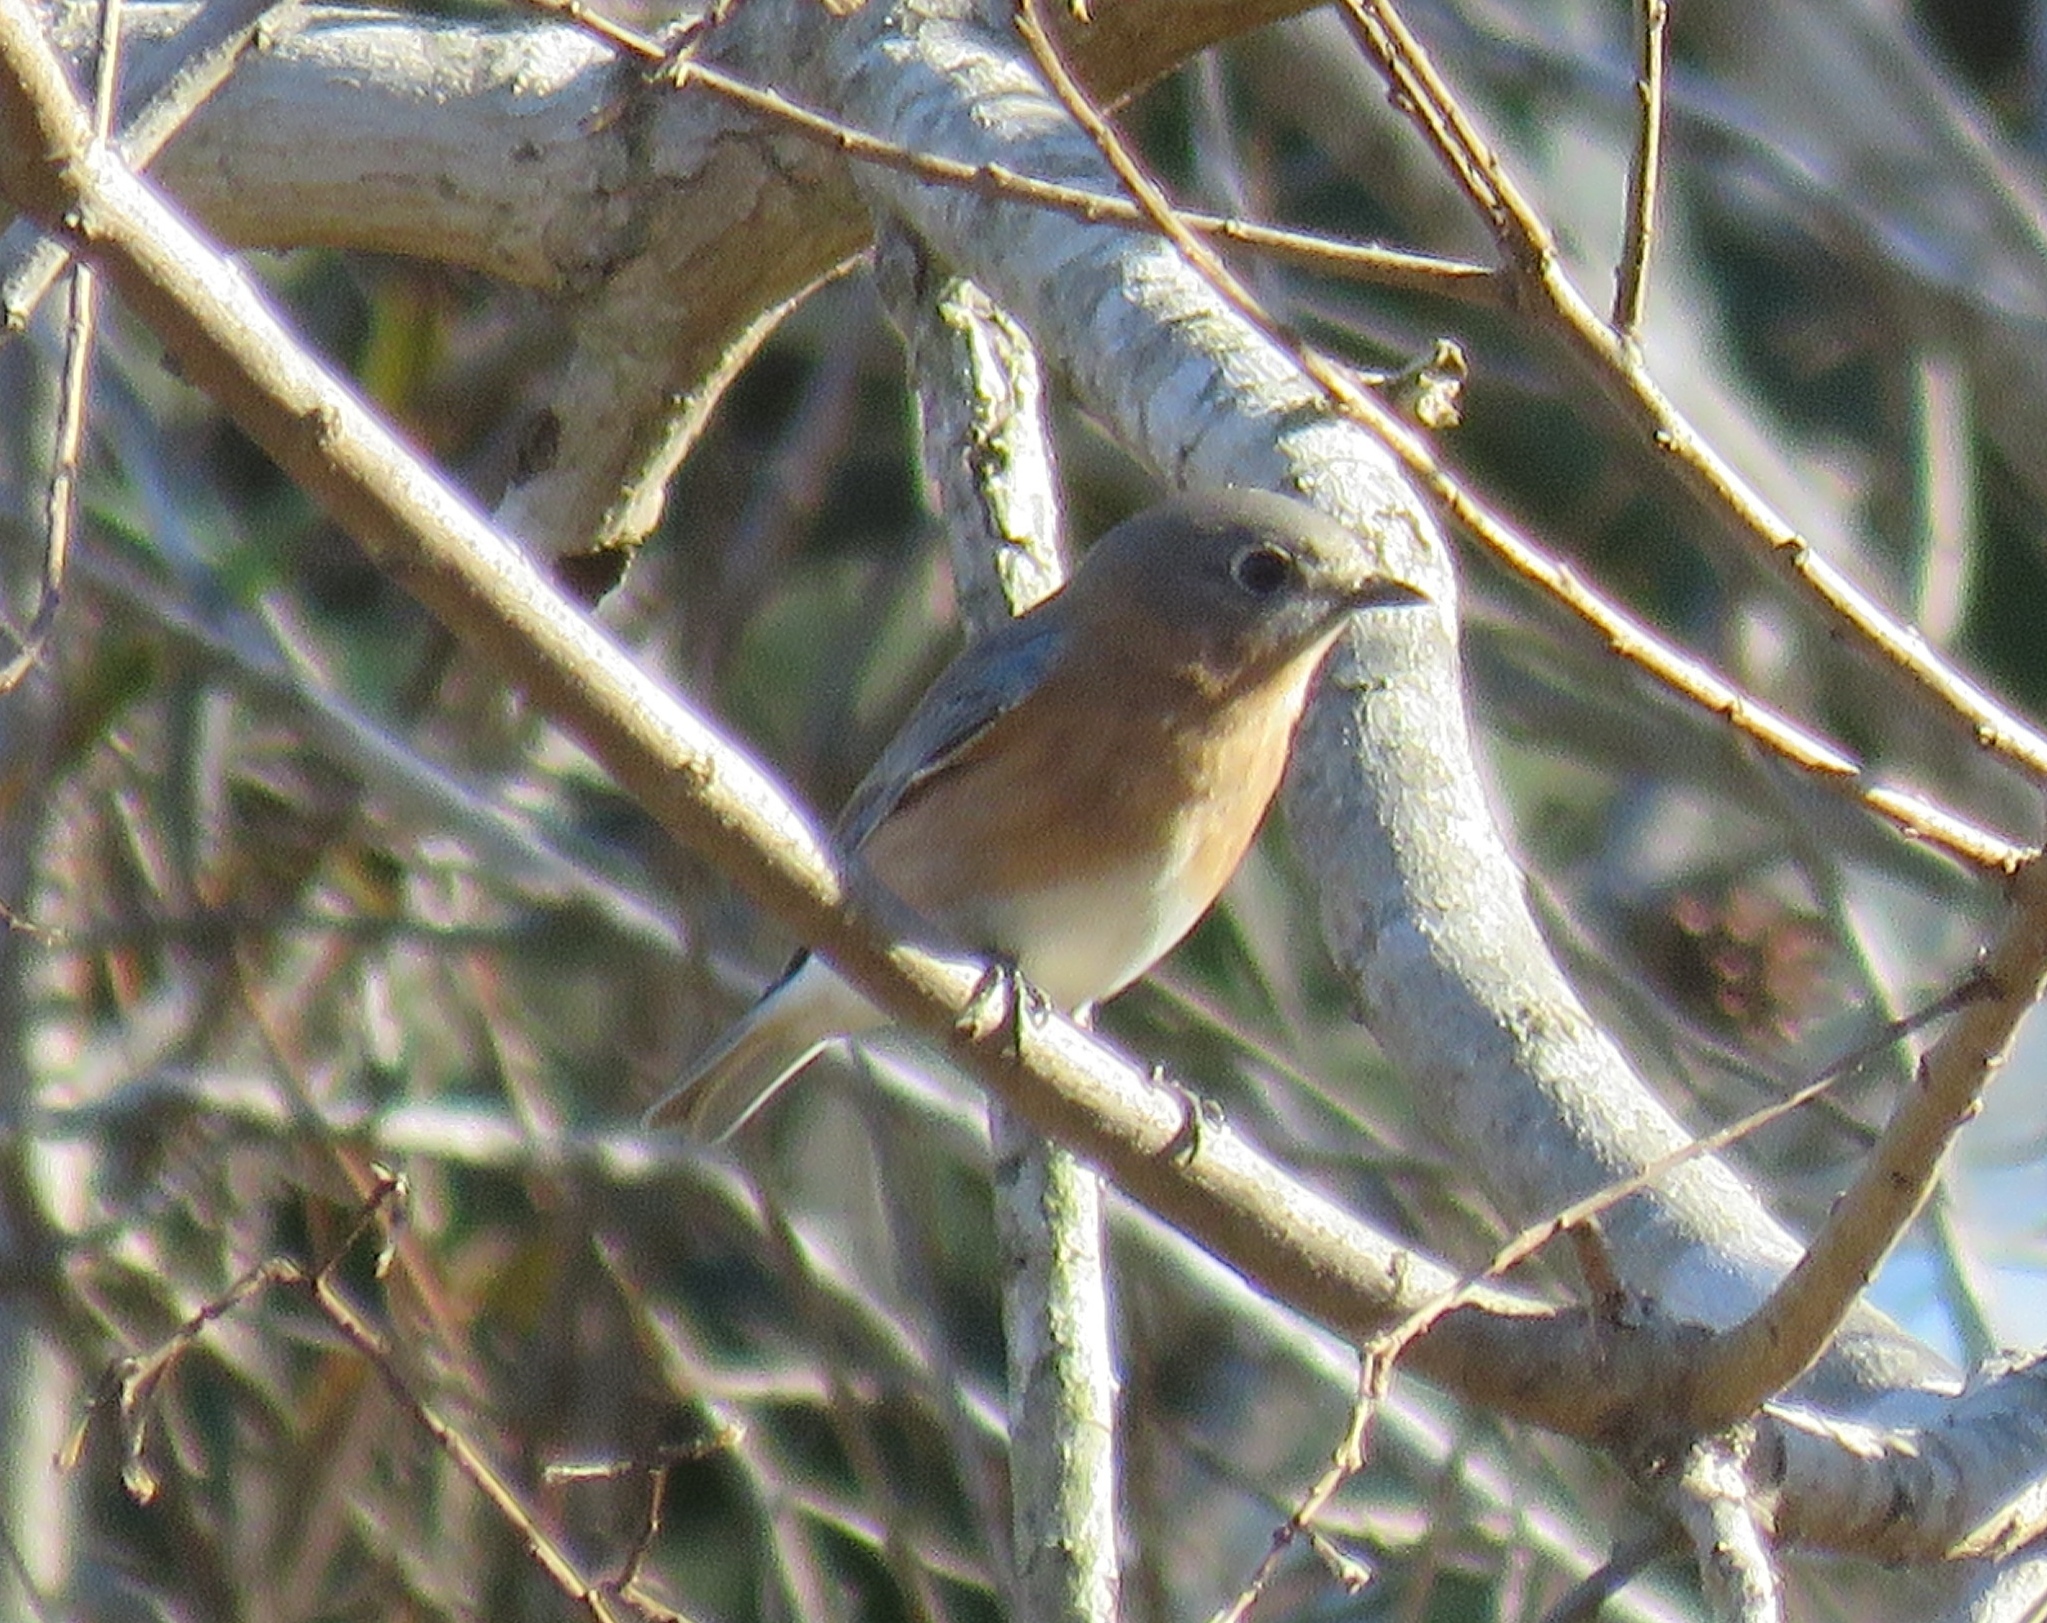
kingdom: Animalia
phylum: Chordata
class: Aves
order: Passeriformes
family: Turdidae
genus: Sialia
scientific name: Sialia sialis
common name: Eastern bluebird
